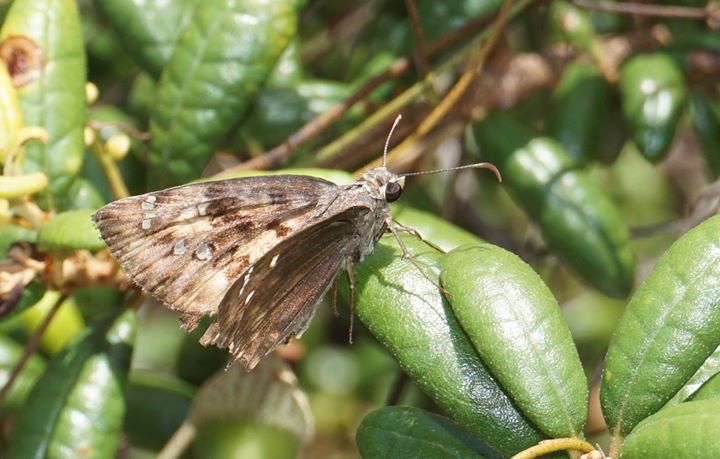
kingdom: Animalia
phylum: Arthropoda
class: Insecta
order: Lepidoptera
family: Hesperiidae
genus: Erynnis
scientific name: Erynnis horatius
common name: Horace's duskywing
